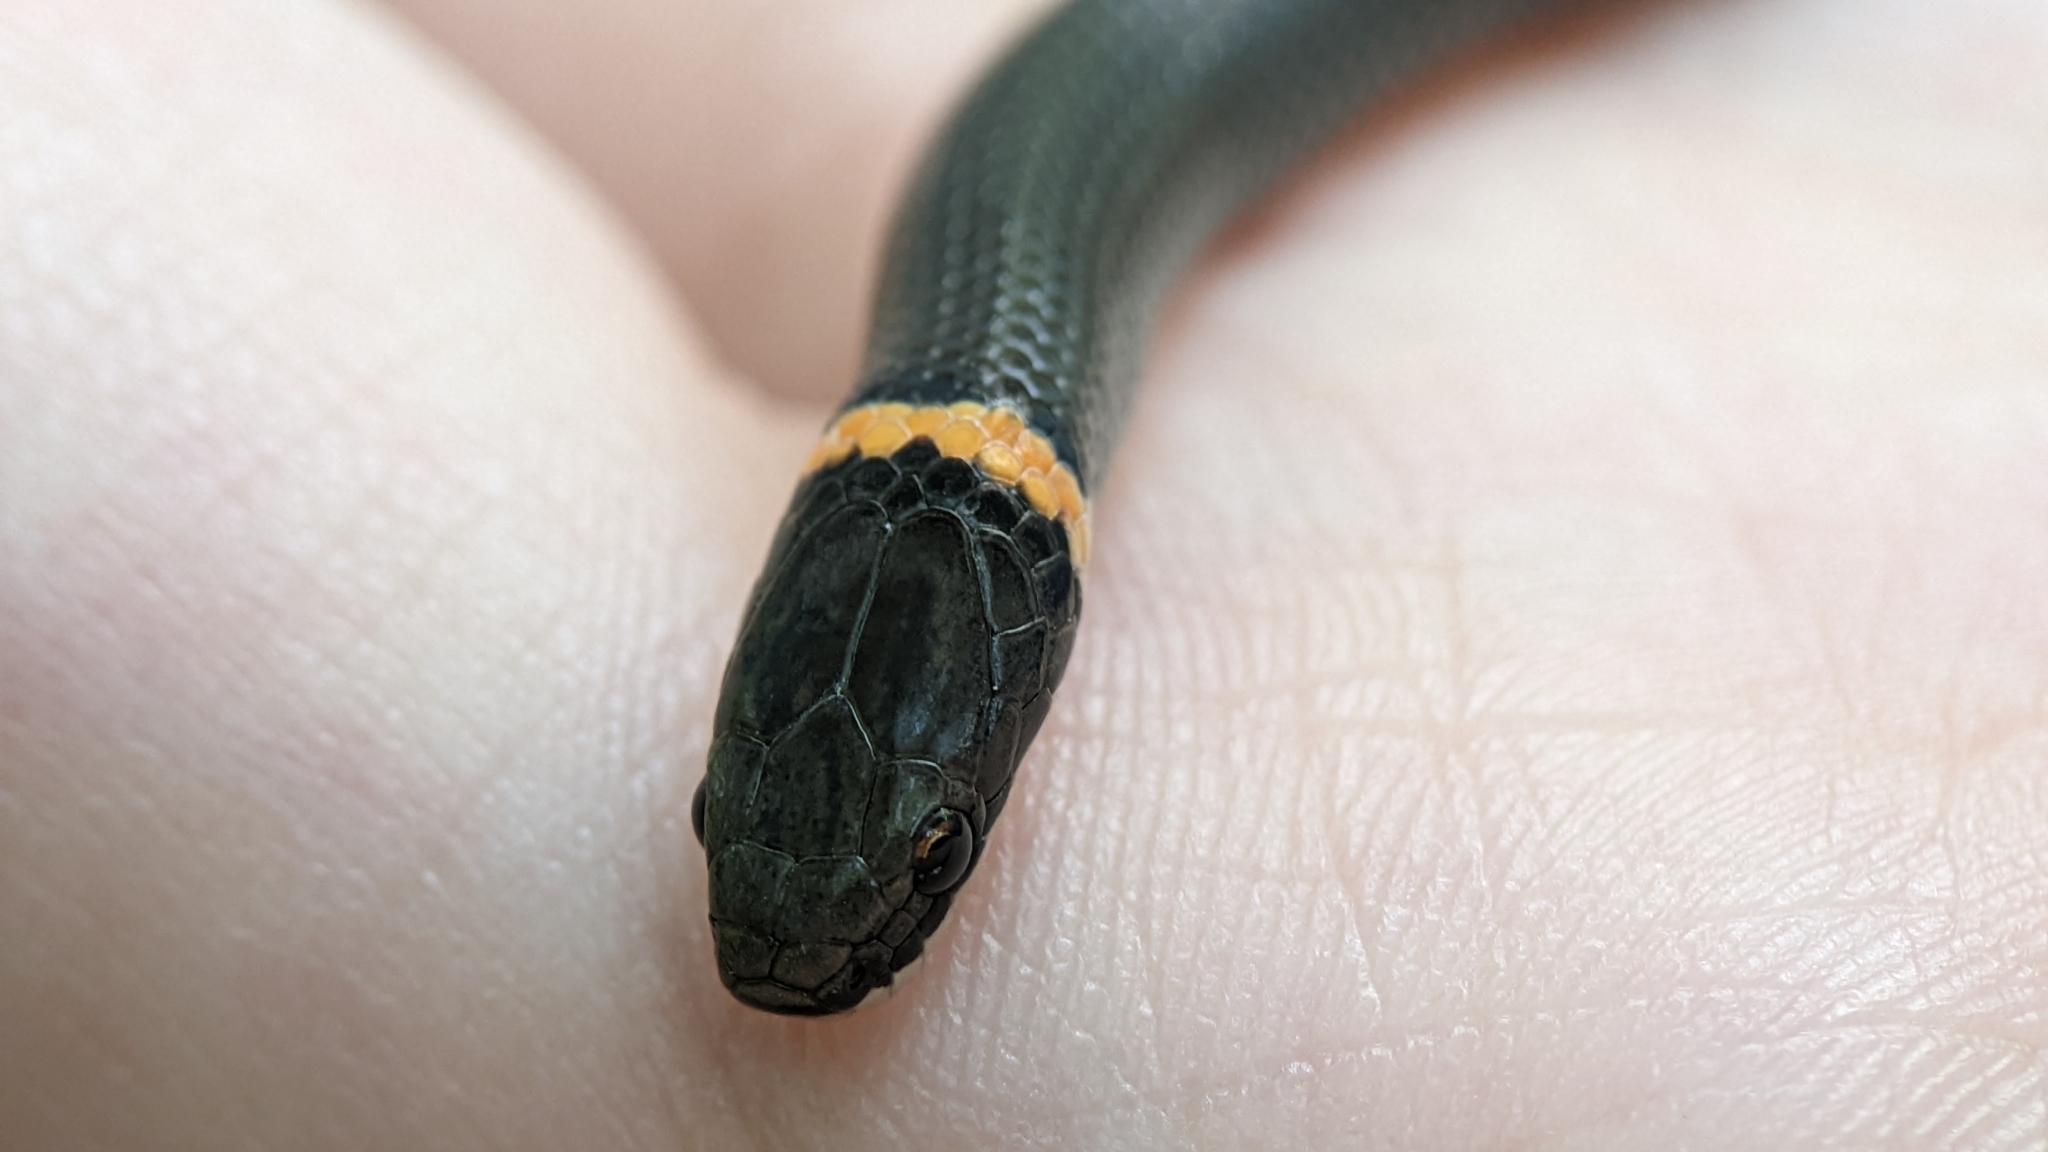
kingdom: Animalia
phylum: Chordata
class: Squamata
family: Colubridae
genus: Diadophis
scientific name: Diadophis punctatus
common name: Ringneck snake
